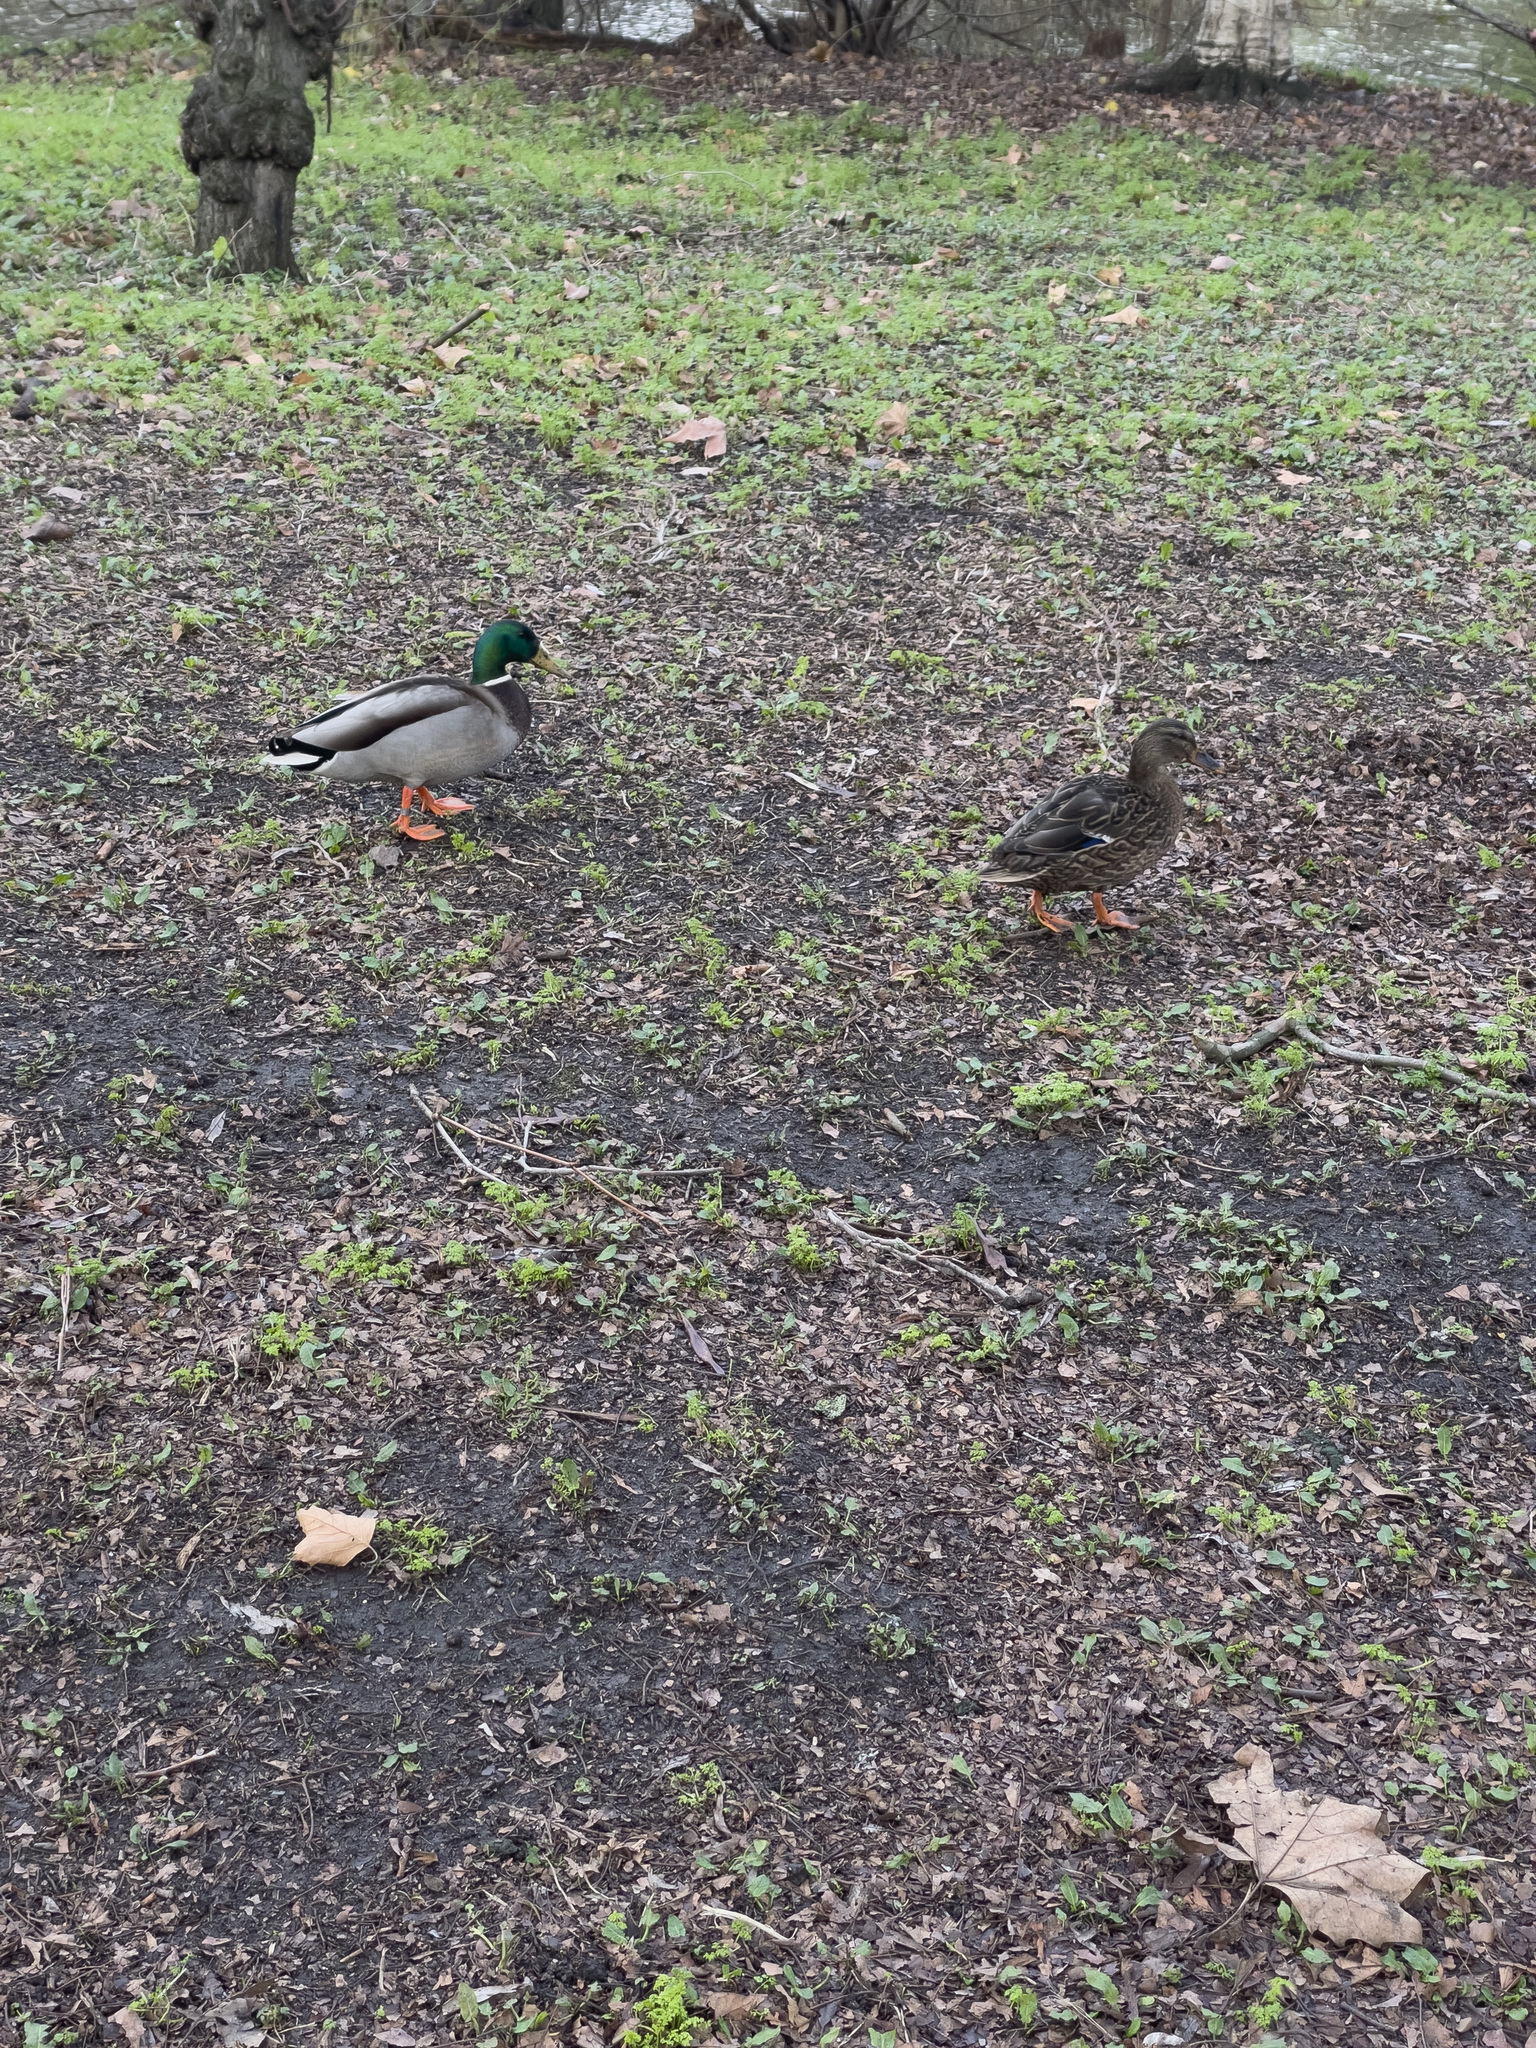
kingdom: Animalia
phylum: Chordata
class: Aves
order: Anseriformes
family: Anatidae
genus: Anas
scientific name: Anas platyrhynchos
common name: Mallard
